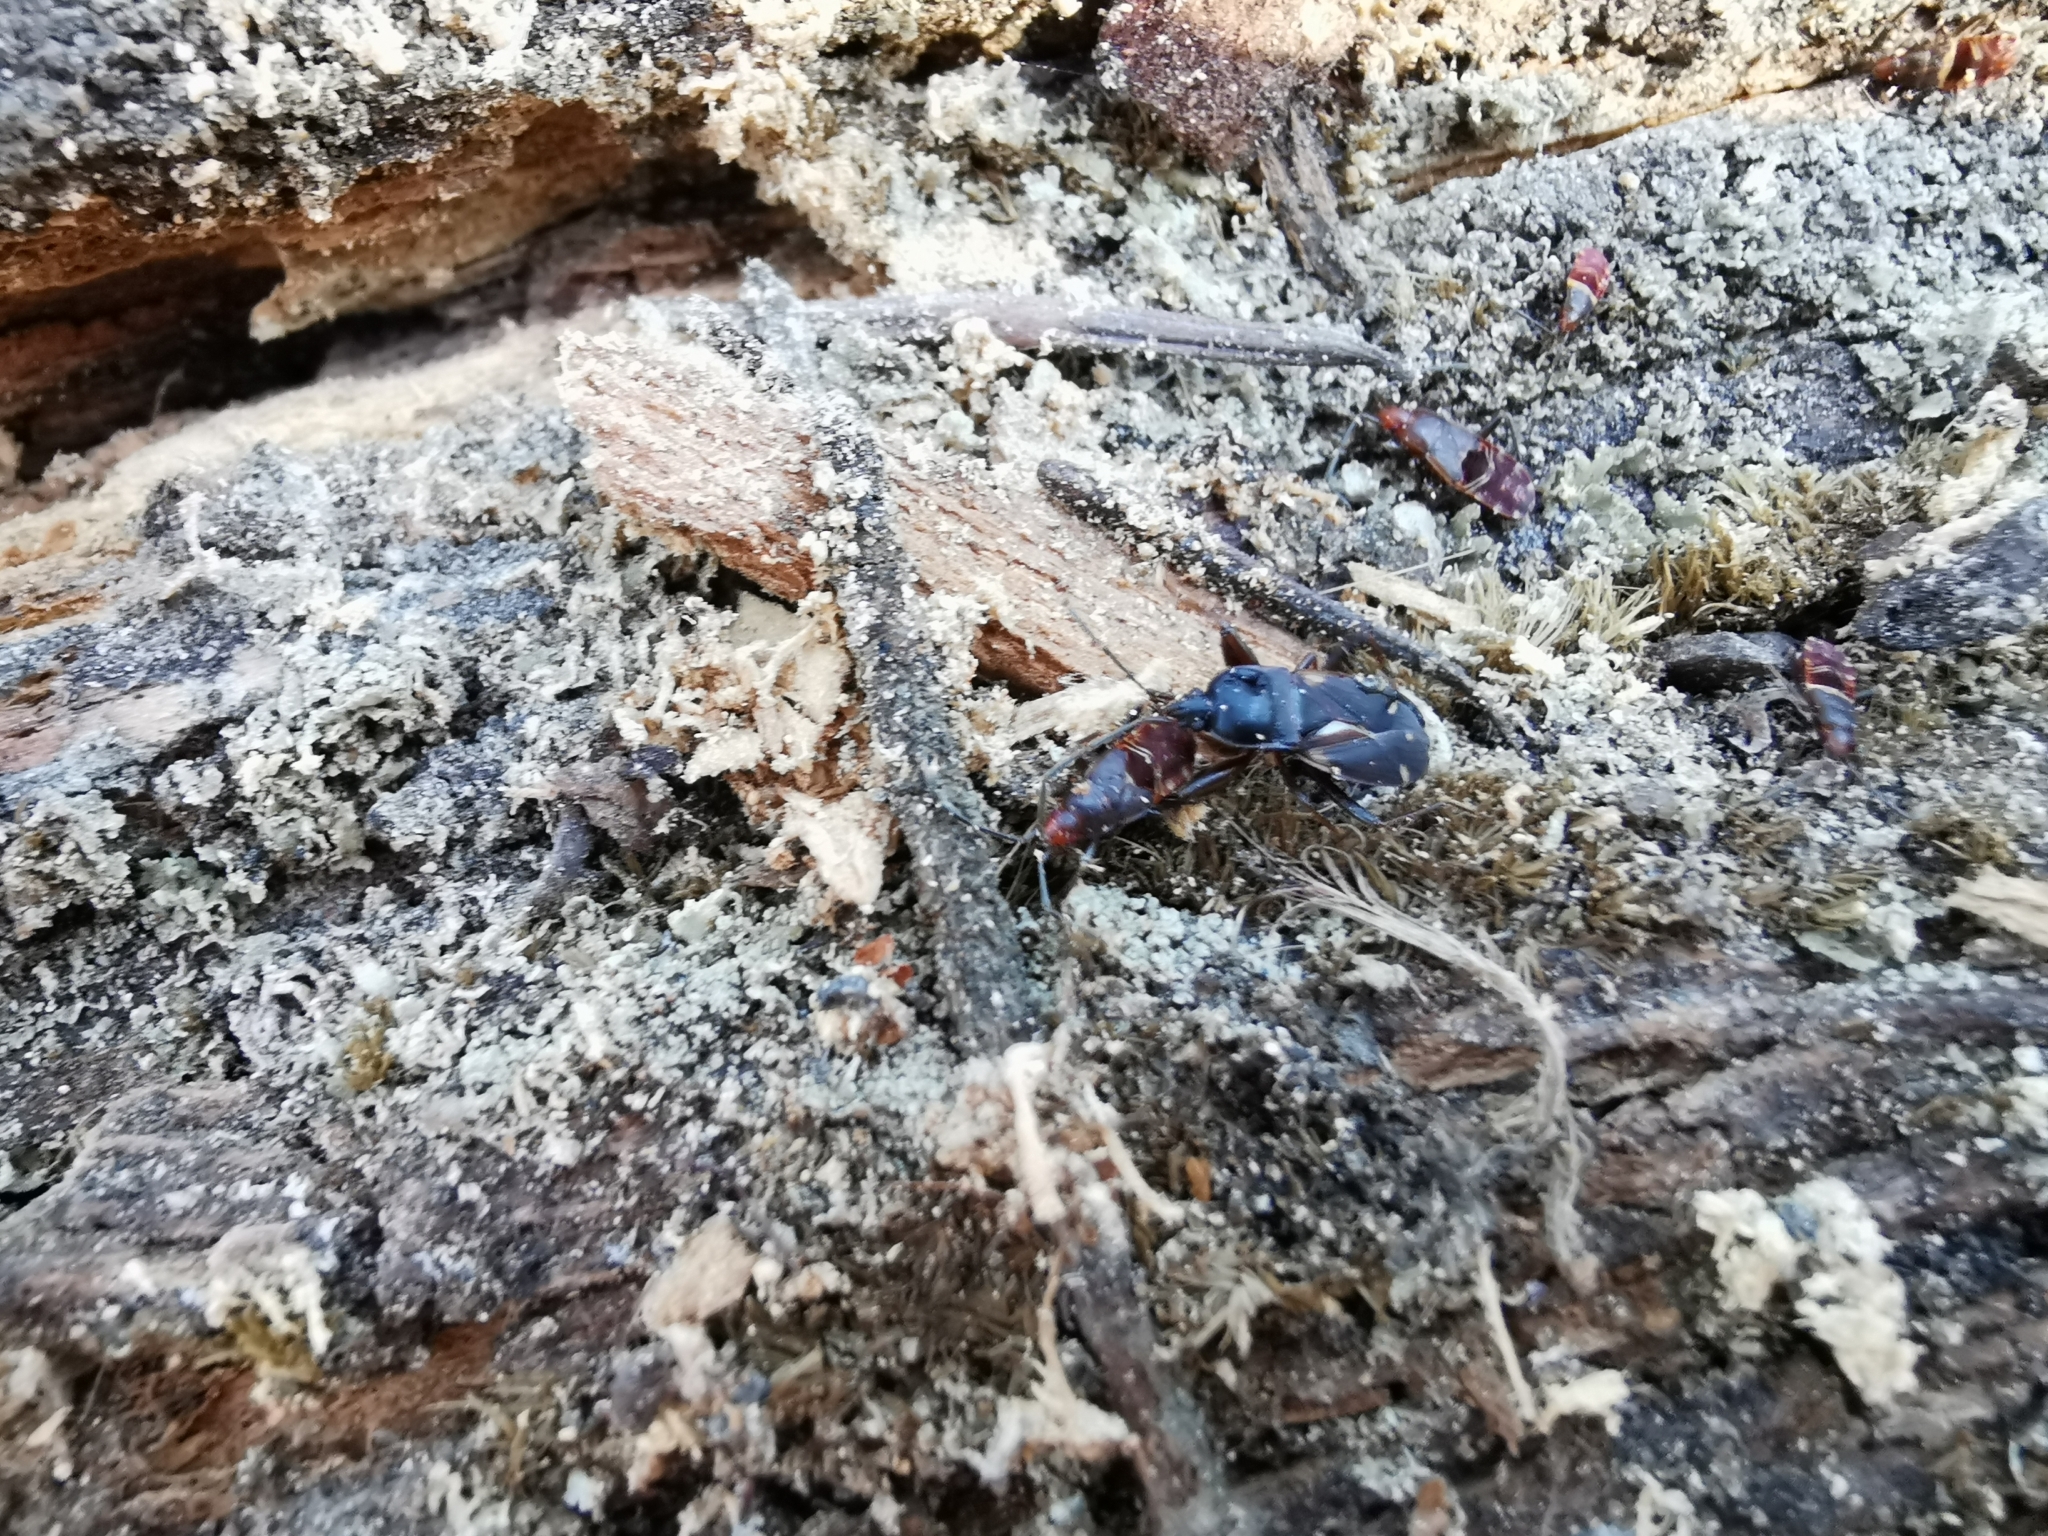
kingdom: Animalia
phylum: Arthropoda
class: Insecta
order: Hemiptera
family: Rhyparochromidae
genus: Eremocoris
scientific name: Eremocoris semicinctus
